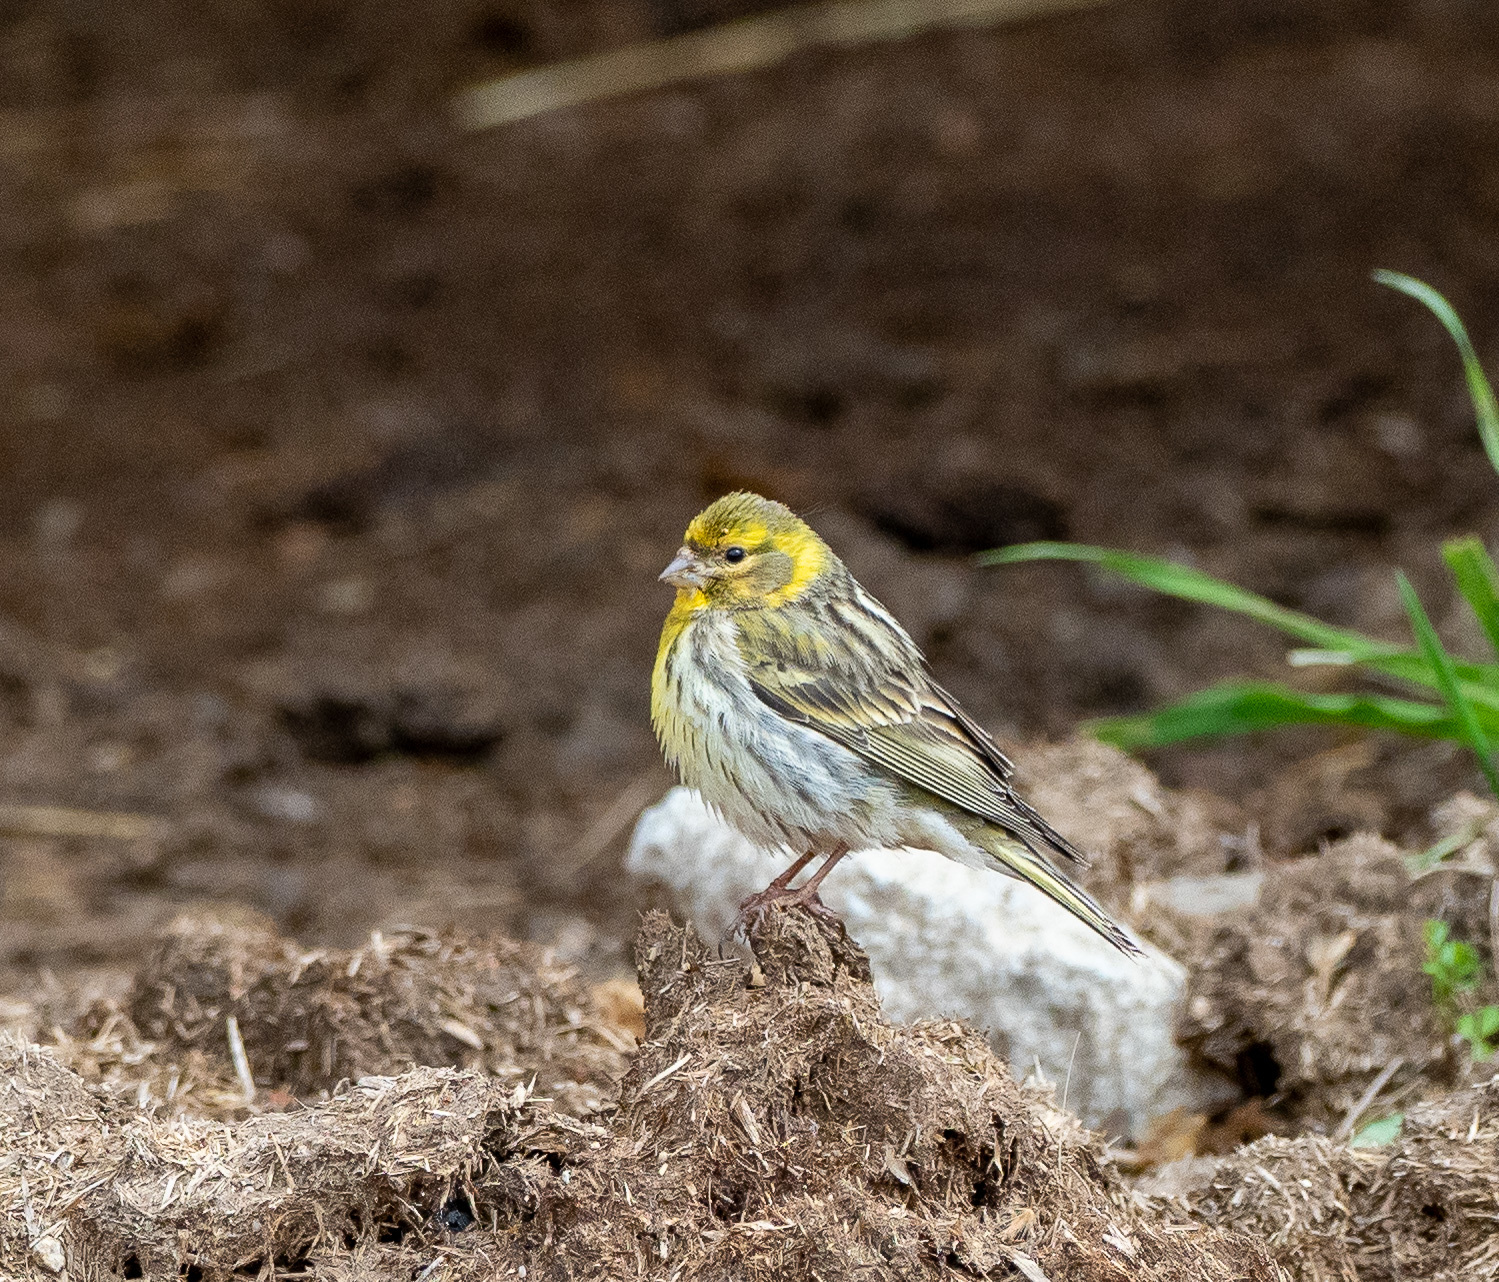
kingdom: Animalia
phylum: Chordata
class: Aves
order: Passeriformes
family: Fringillidae
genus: Serinus
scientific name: Serinus serinus
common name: European serin
